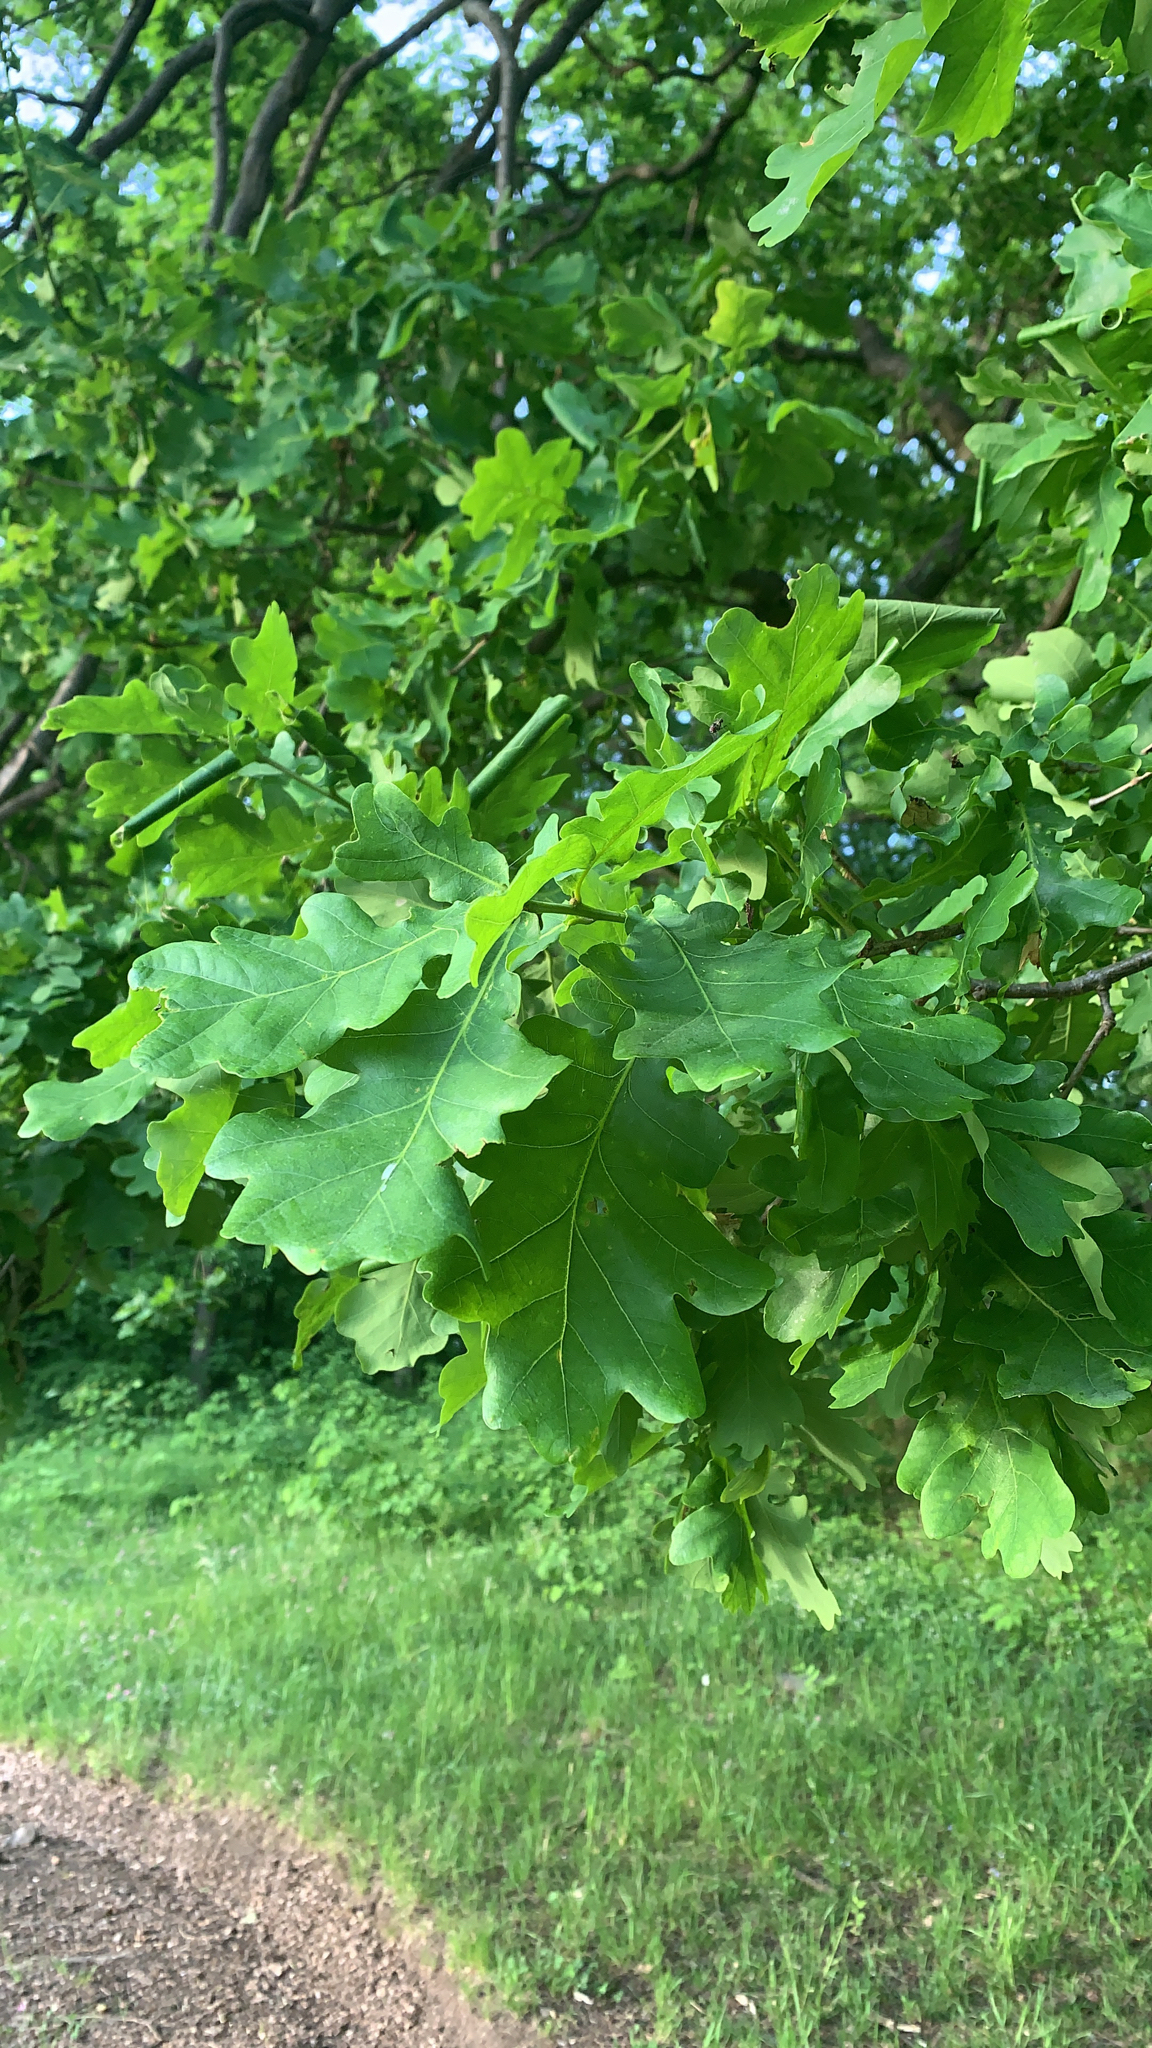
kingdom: Plantae
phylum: Tracheophyta
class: Magnoliopsida
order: Fagales
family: Fagaceae
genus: Quercus
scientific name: Quercus robur
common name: Pedunculate oak
